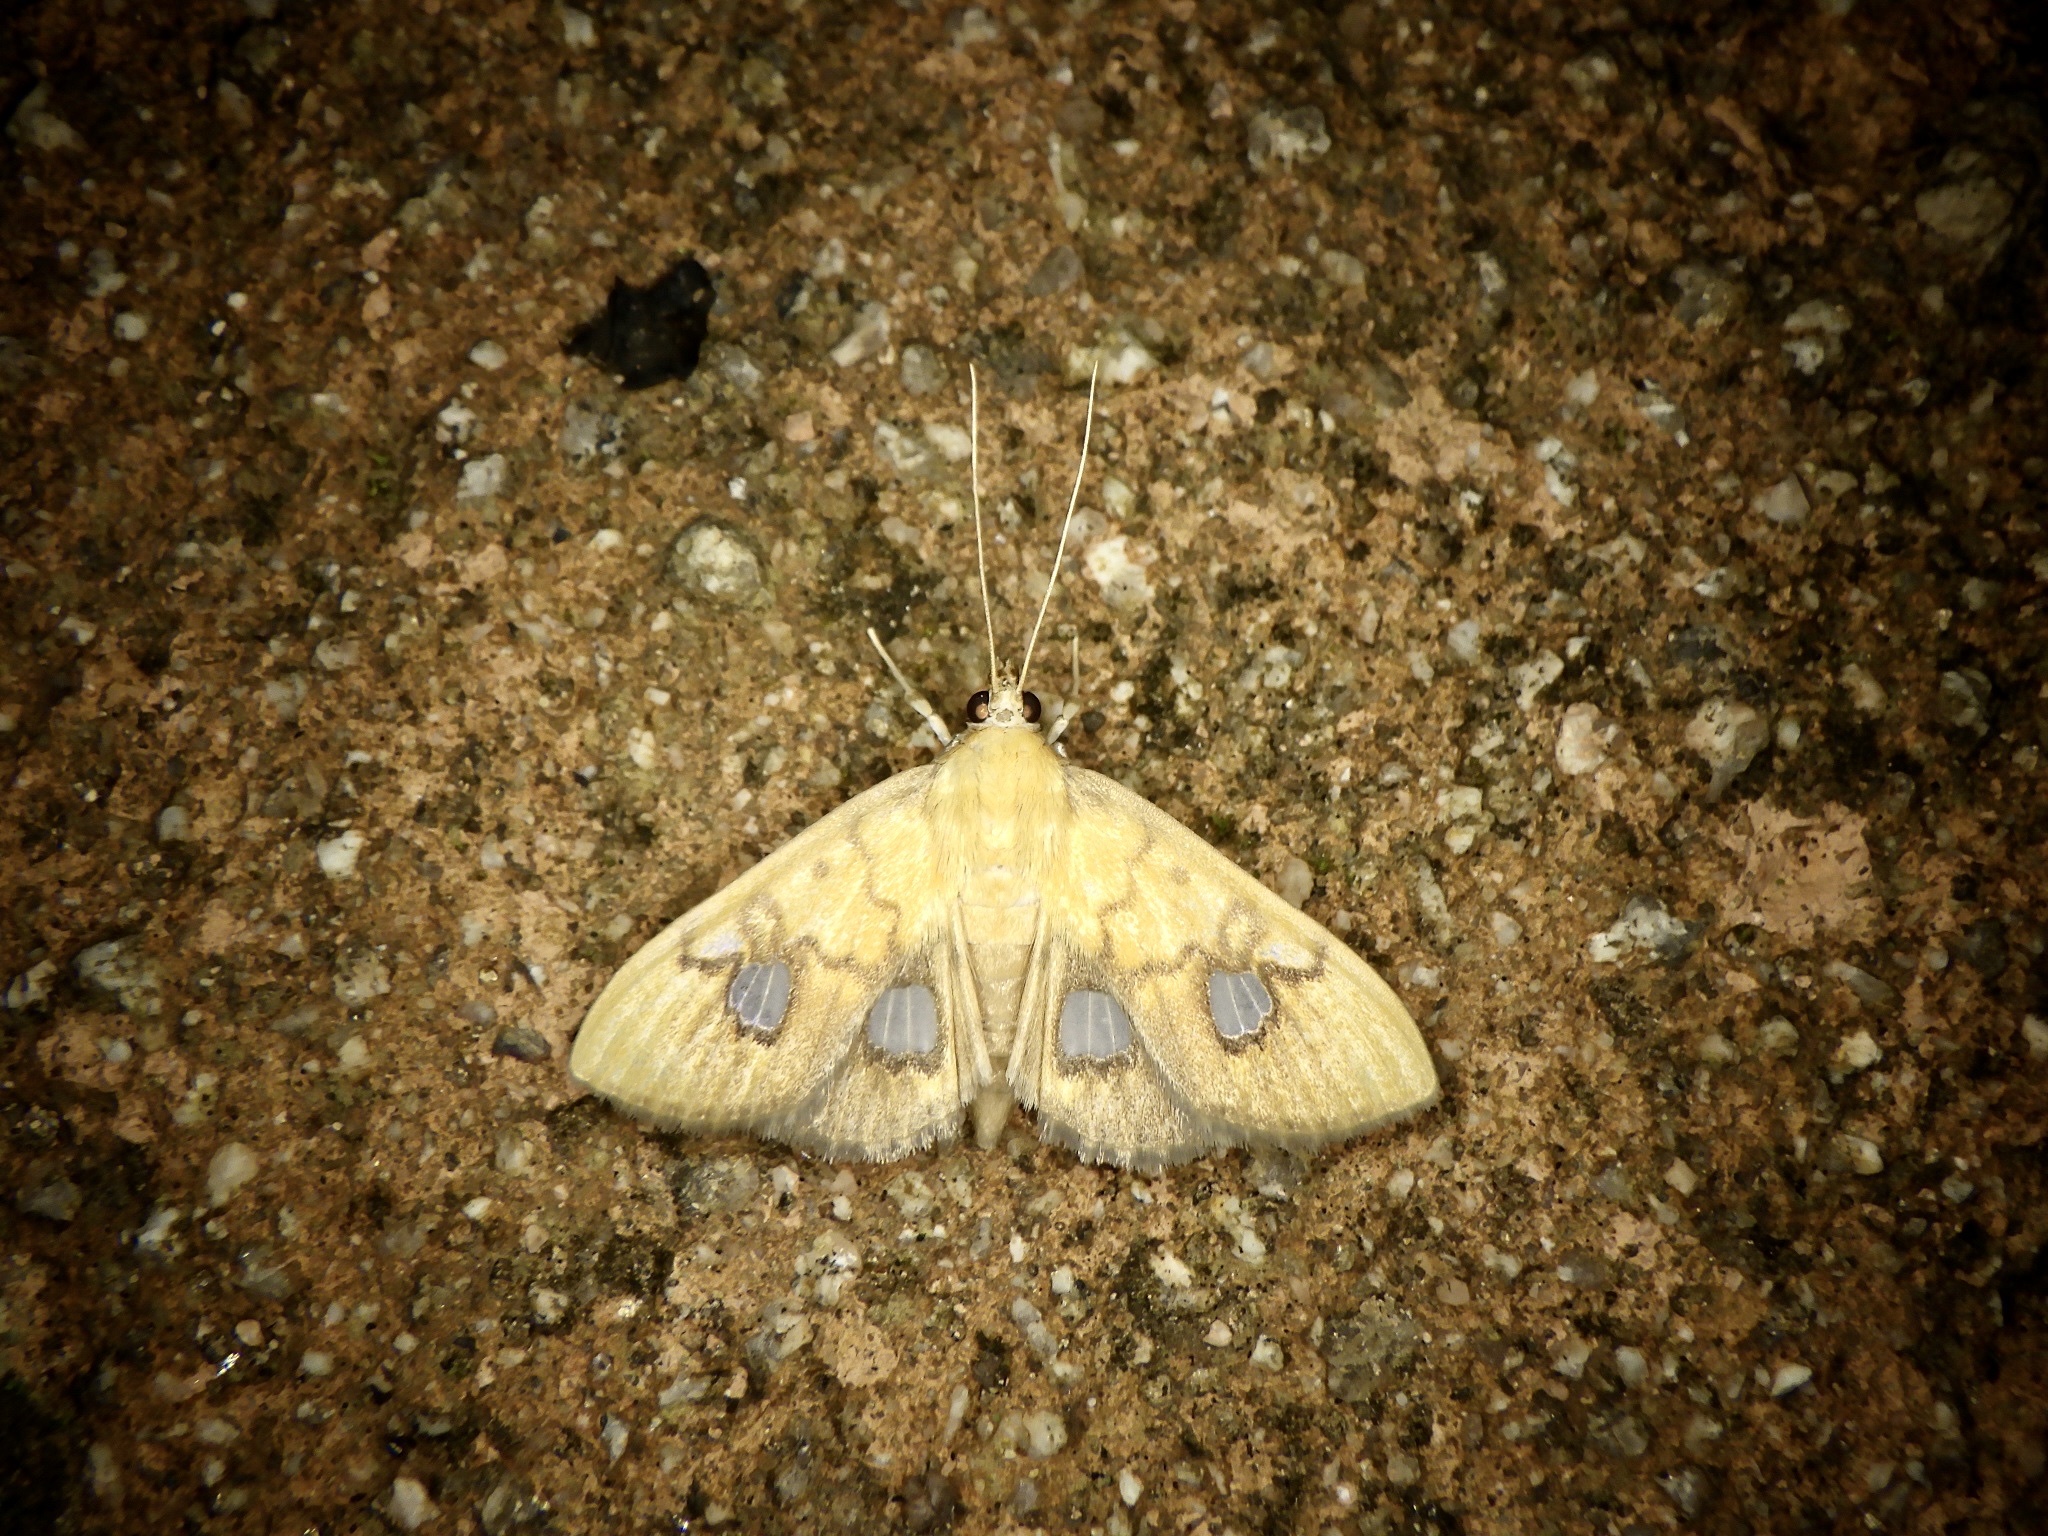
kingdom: Animalia
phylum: Arthropoda
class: Insecta
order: Lepidoptera
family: Crambidae
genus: Nosophora
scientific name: Nosophora semitritalis
